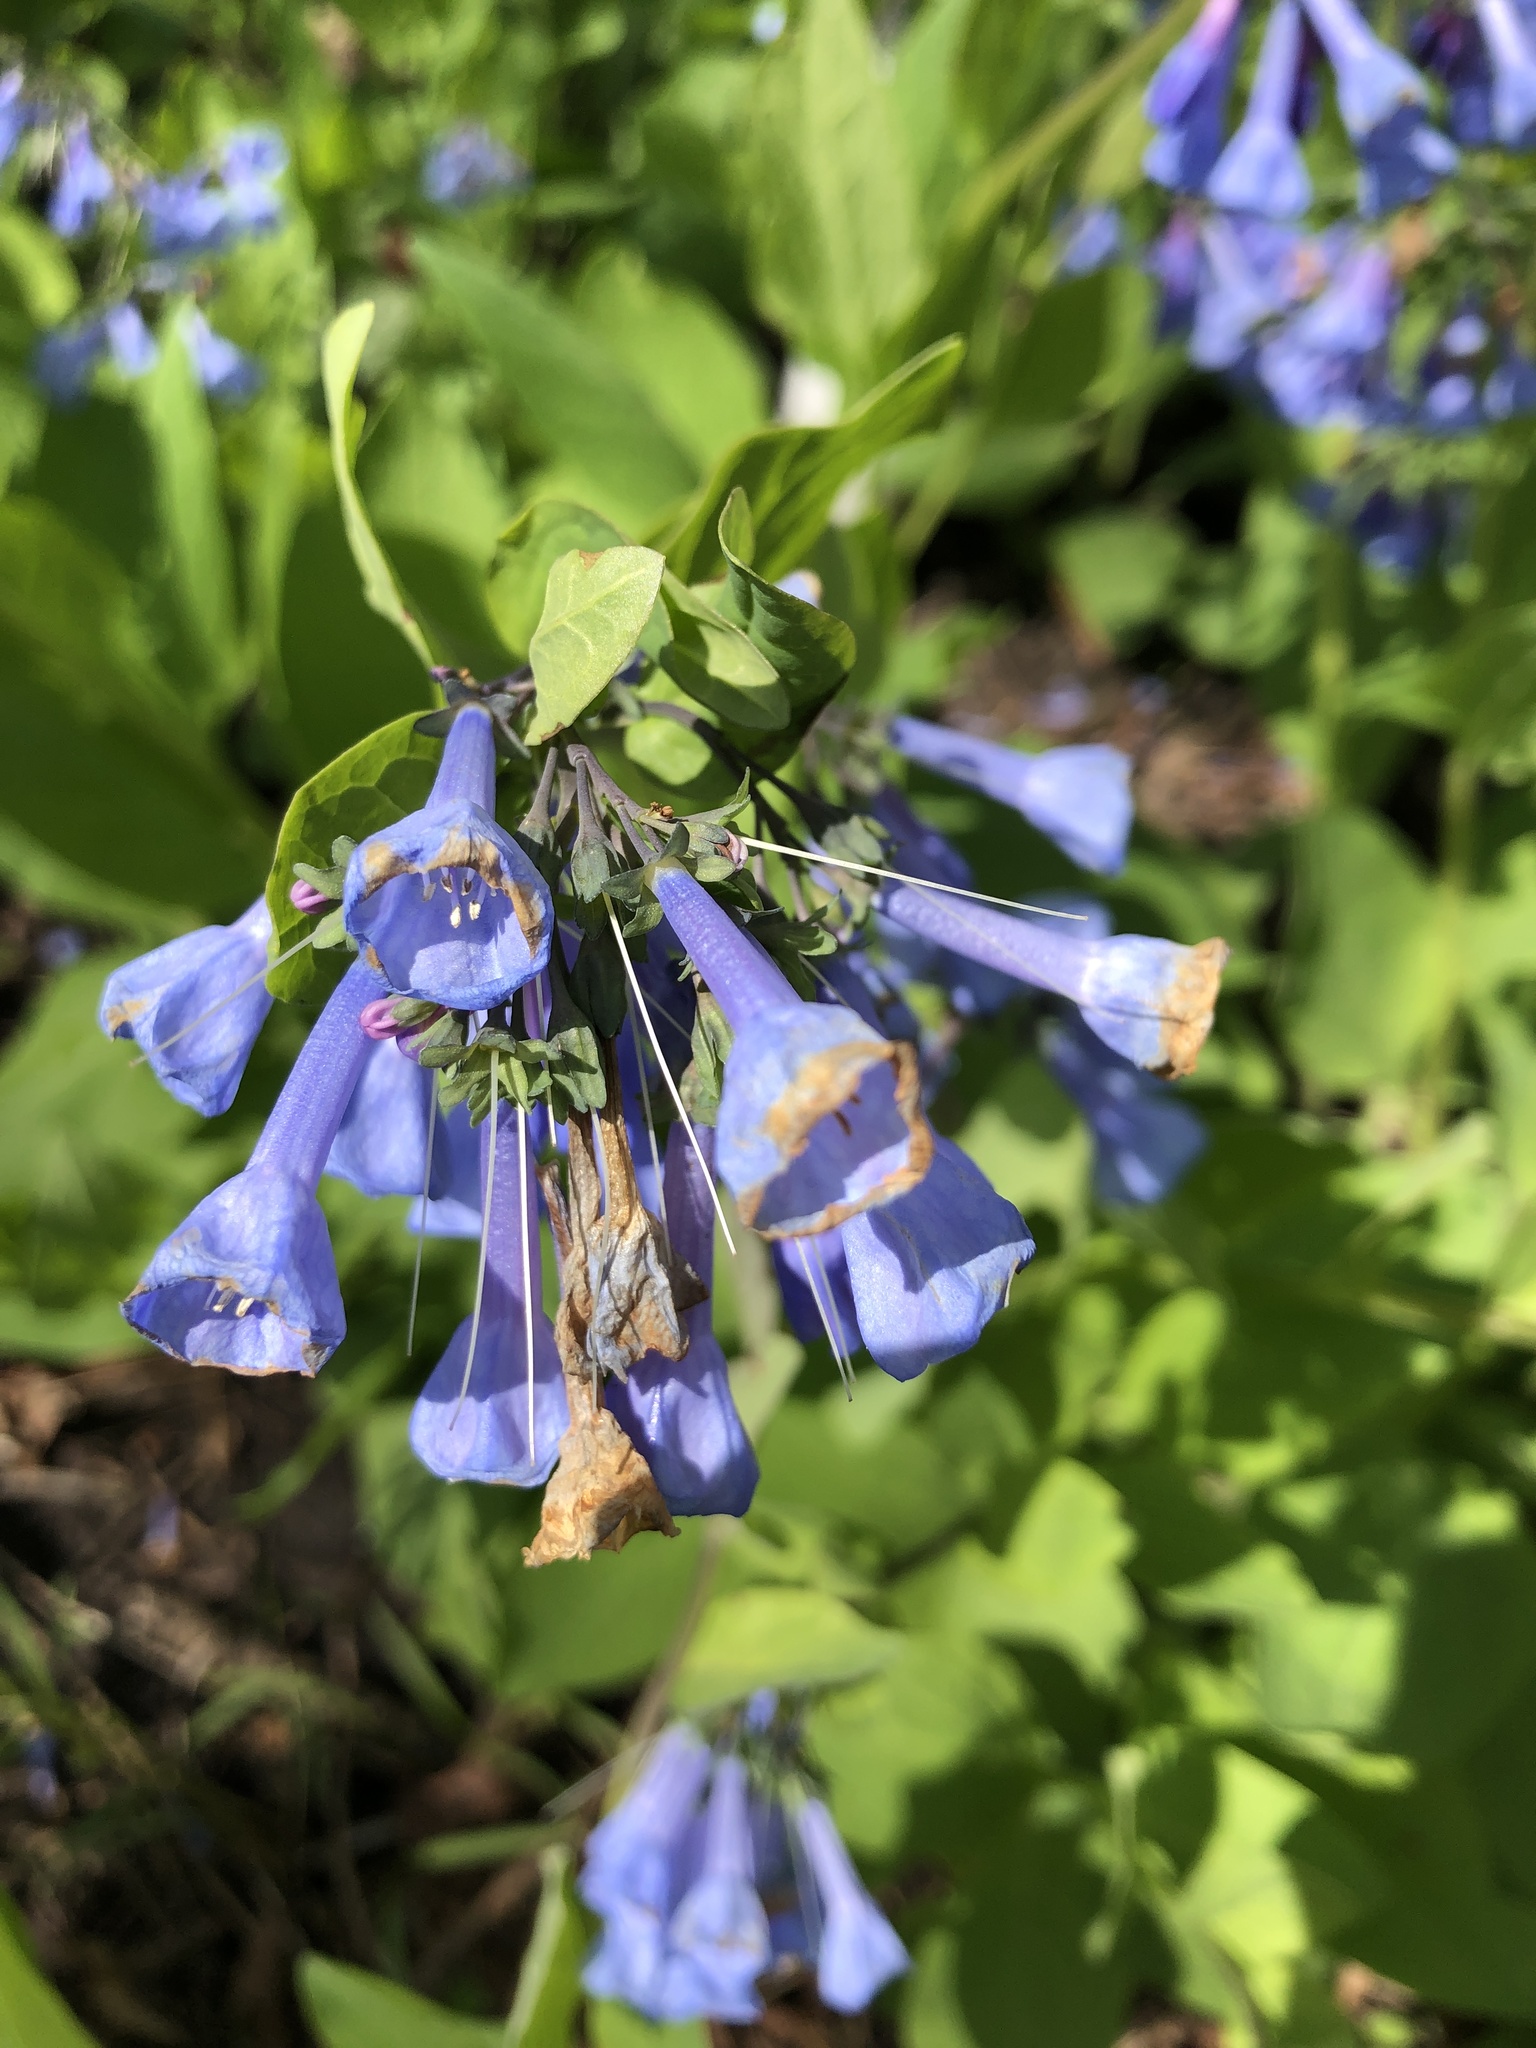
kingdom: Plantae
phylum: Tracheophyta
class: Magnoliopsida
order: Boraginales
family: Boraginaceae
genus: Mertensia
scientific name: Mertensia virginica
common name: Virginia bluebells
